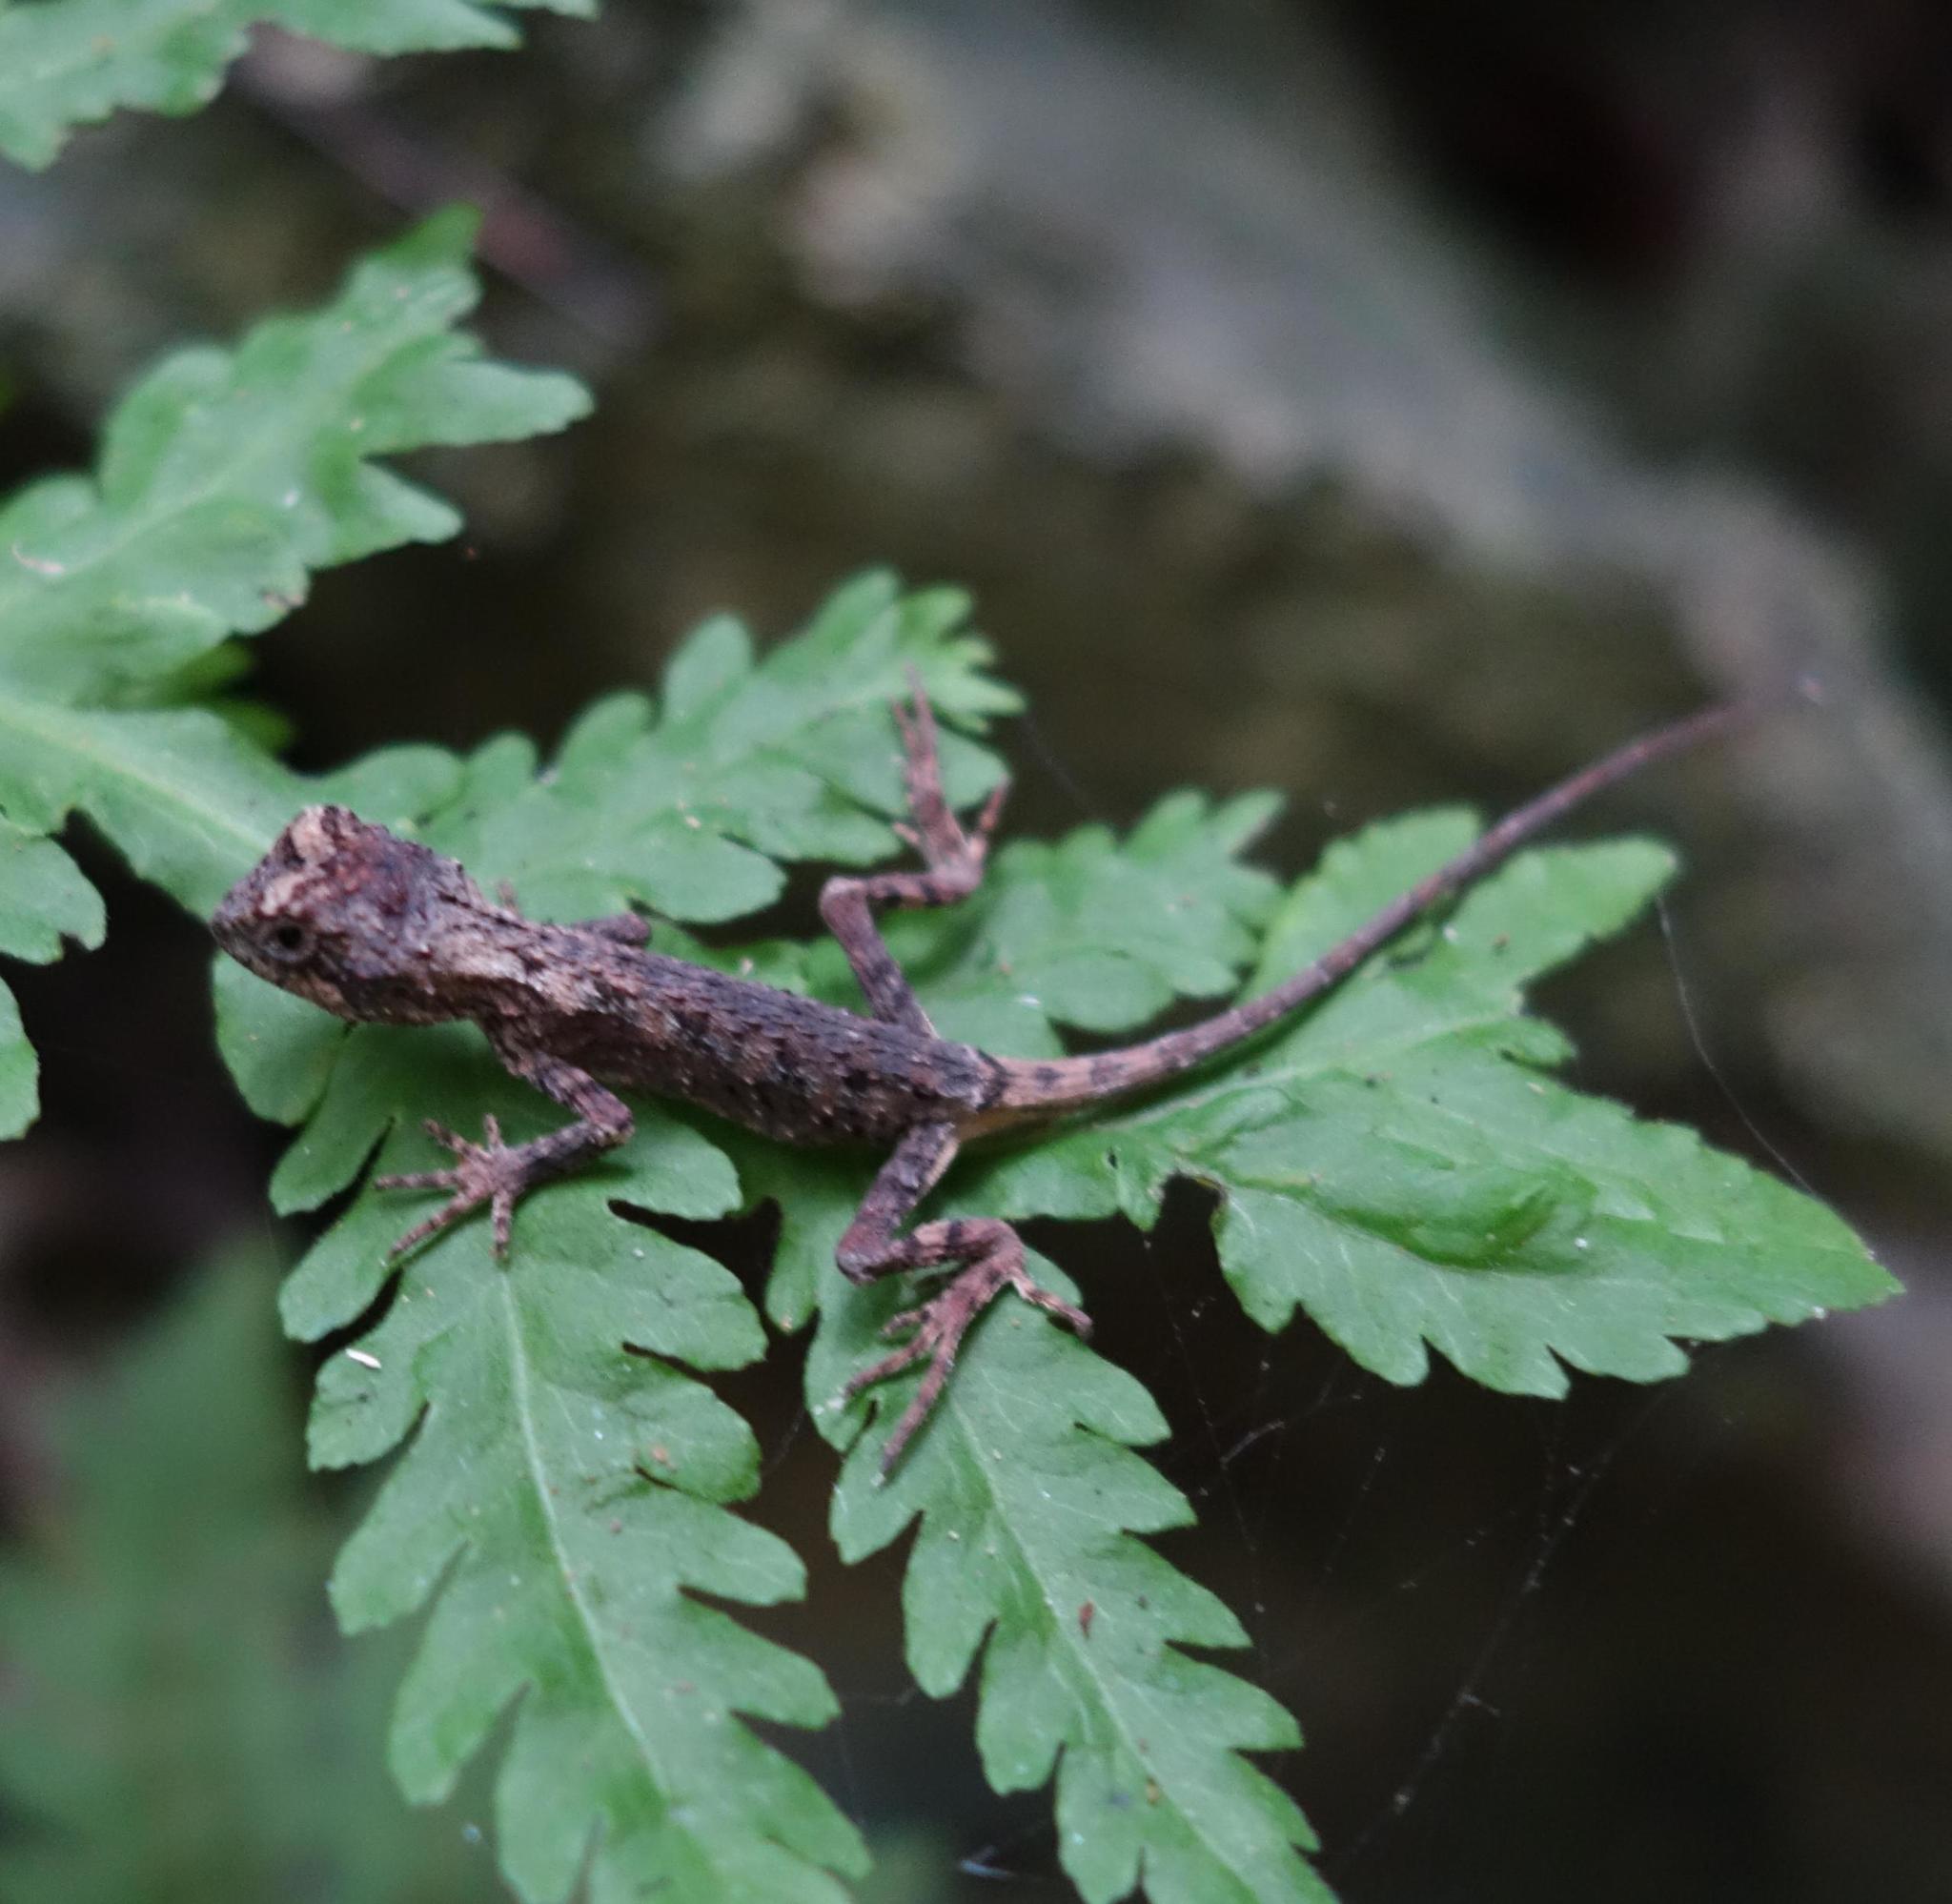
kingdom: Animalia
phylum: Chordata
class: Squamata
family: Agamidae
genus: Diploderma
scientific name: Diploderma swinhonis
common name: Taiwan japalure
